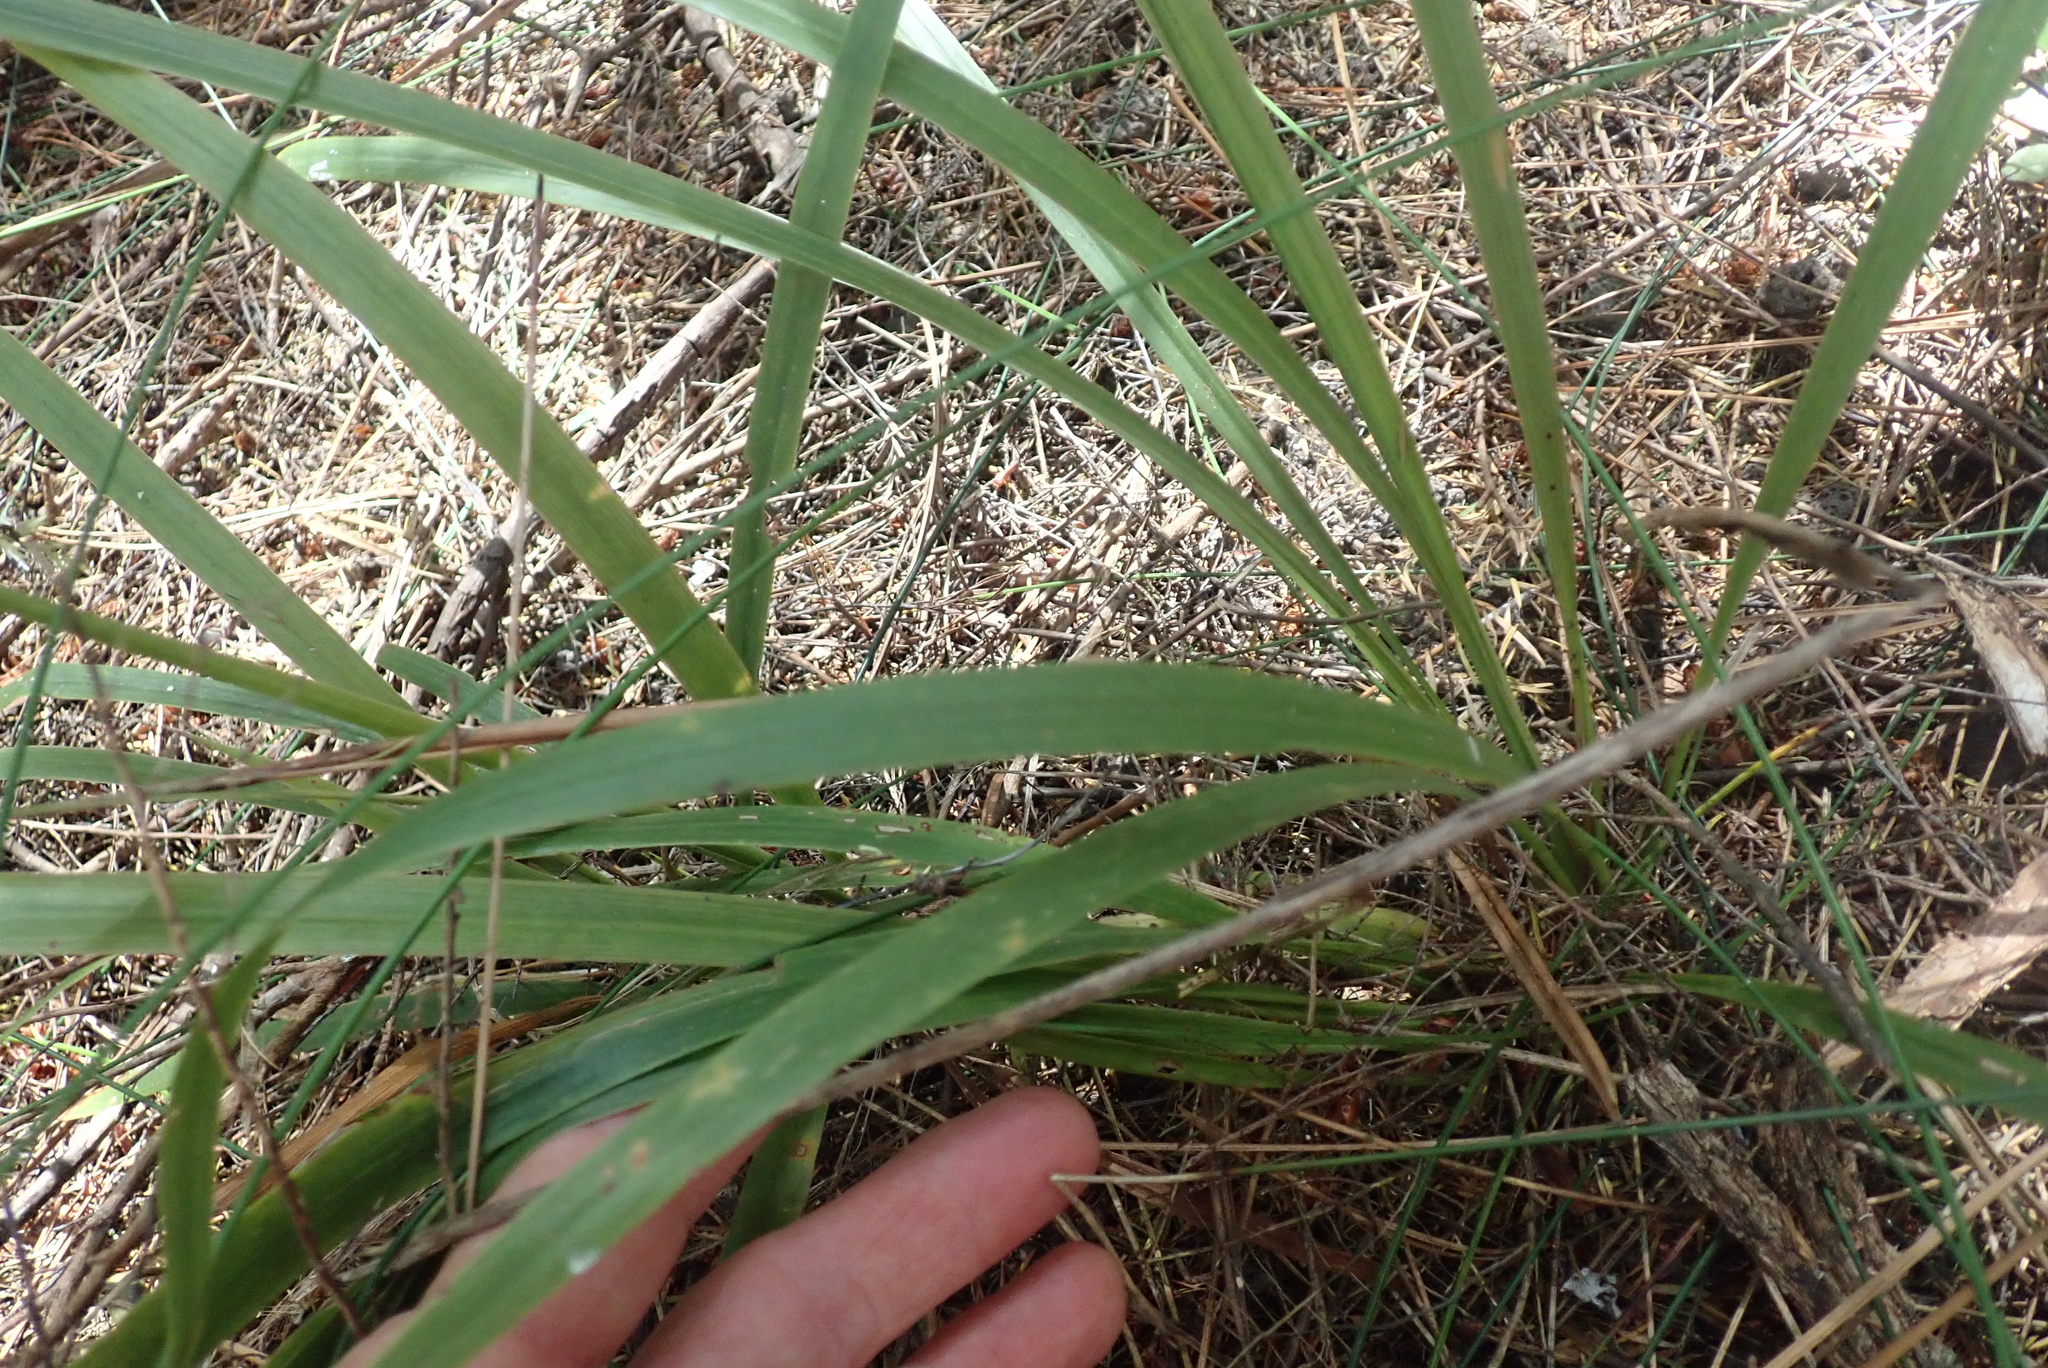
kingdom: Plantae
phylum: Tracheophyta
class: Liliopsida
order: Asparagales
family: Asparagaceae
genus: Cordyline
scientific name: Cordyline pumilio
